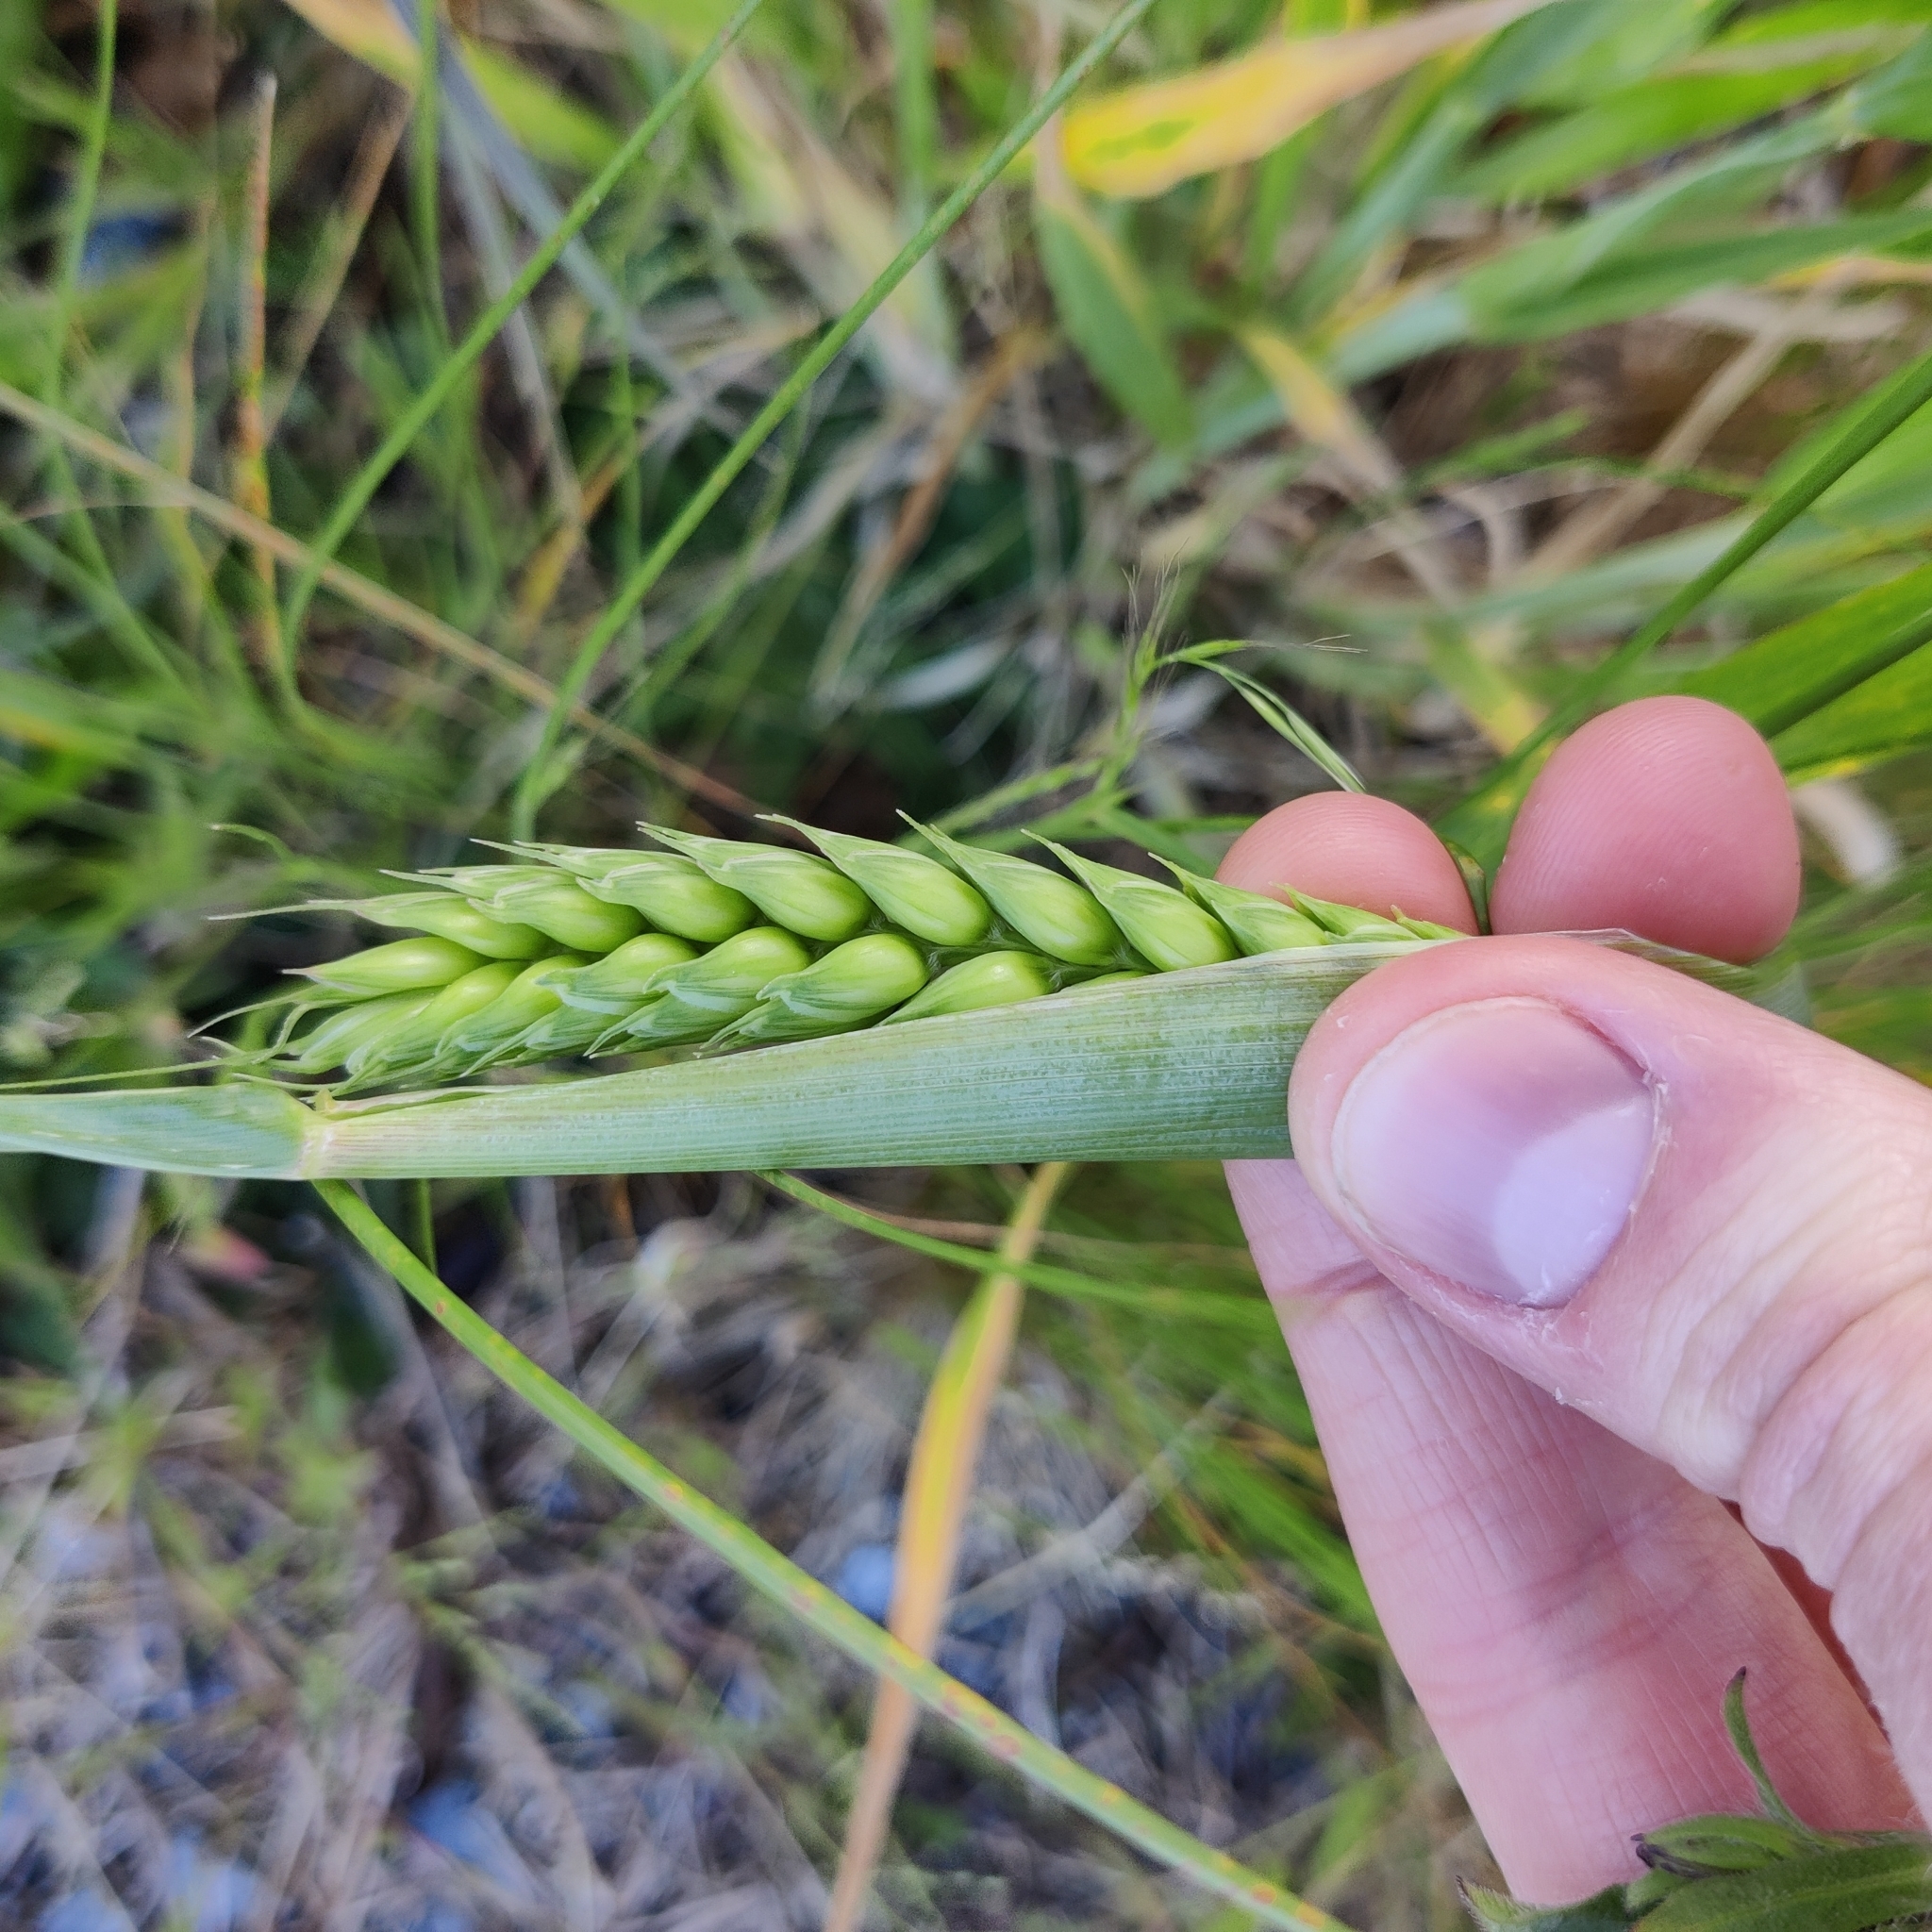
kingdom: Plantae
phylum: Tracheophyta
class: Liliopsida
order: Poales
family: Poaceae
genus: Triticum
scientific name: Triticum aestivum
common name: Common wheat
